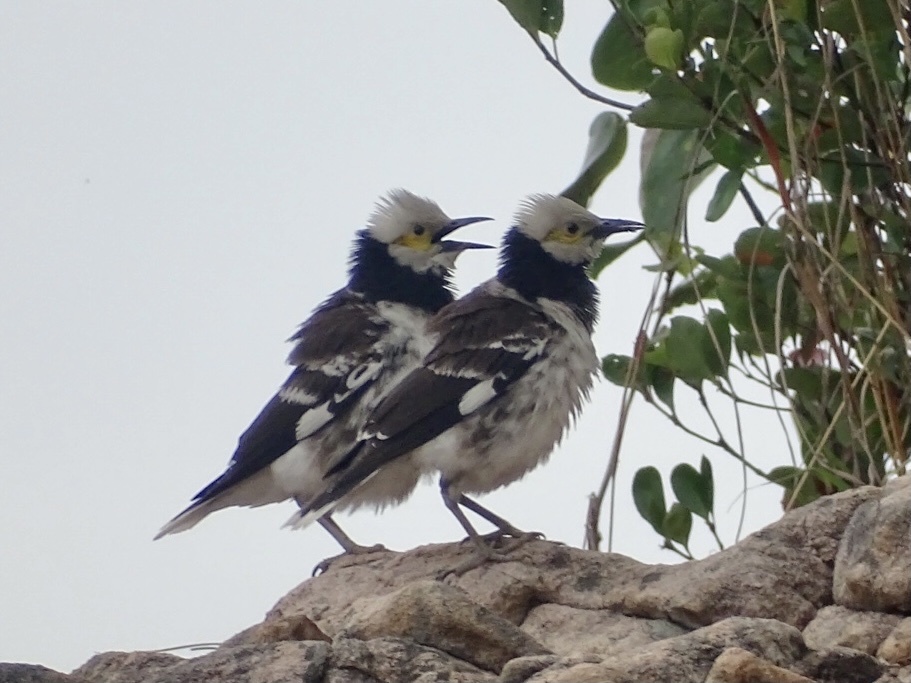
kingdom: Animalia
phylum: Chordata
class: Aves
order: Passeriformes
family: Sturnidae
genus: Gracupica
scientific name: Gracupica nigricollis
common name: Black-collared starling
